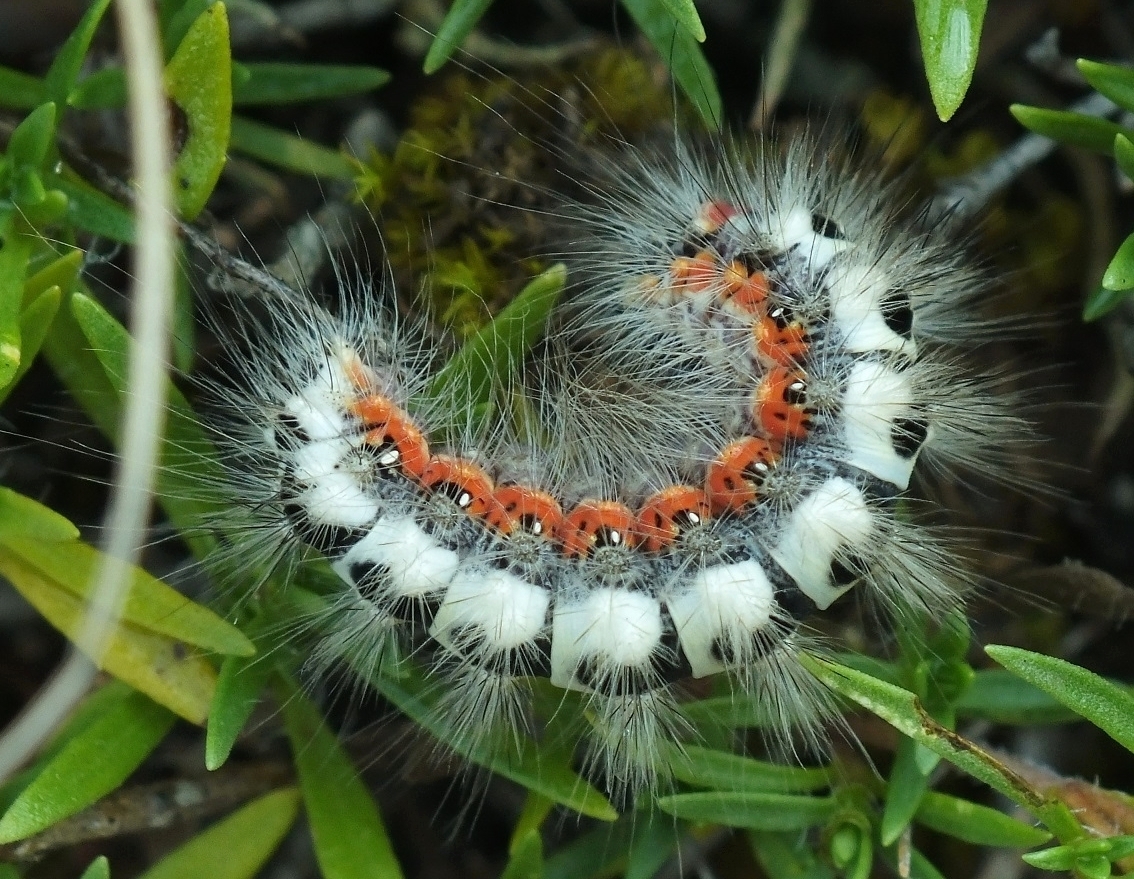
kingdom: Animalia
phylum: Arthropoda
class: Insecta
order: Lepidoptera
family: Noctuidae
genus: Acronicta
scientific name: Acronicta euphorbiae
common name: Sweet gale moth
